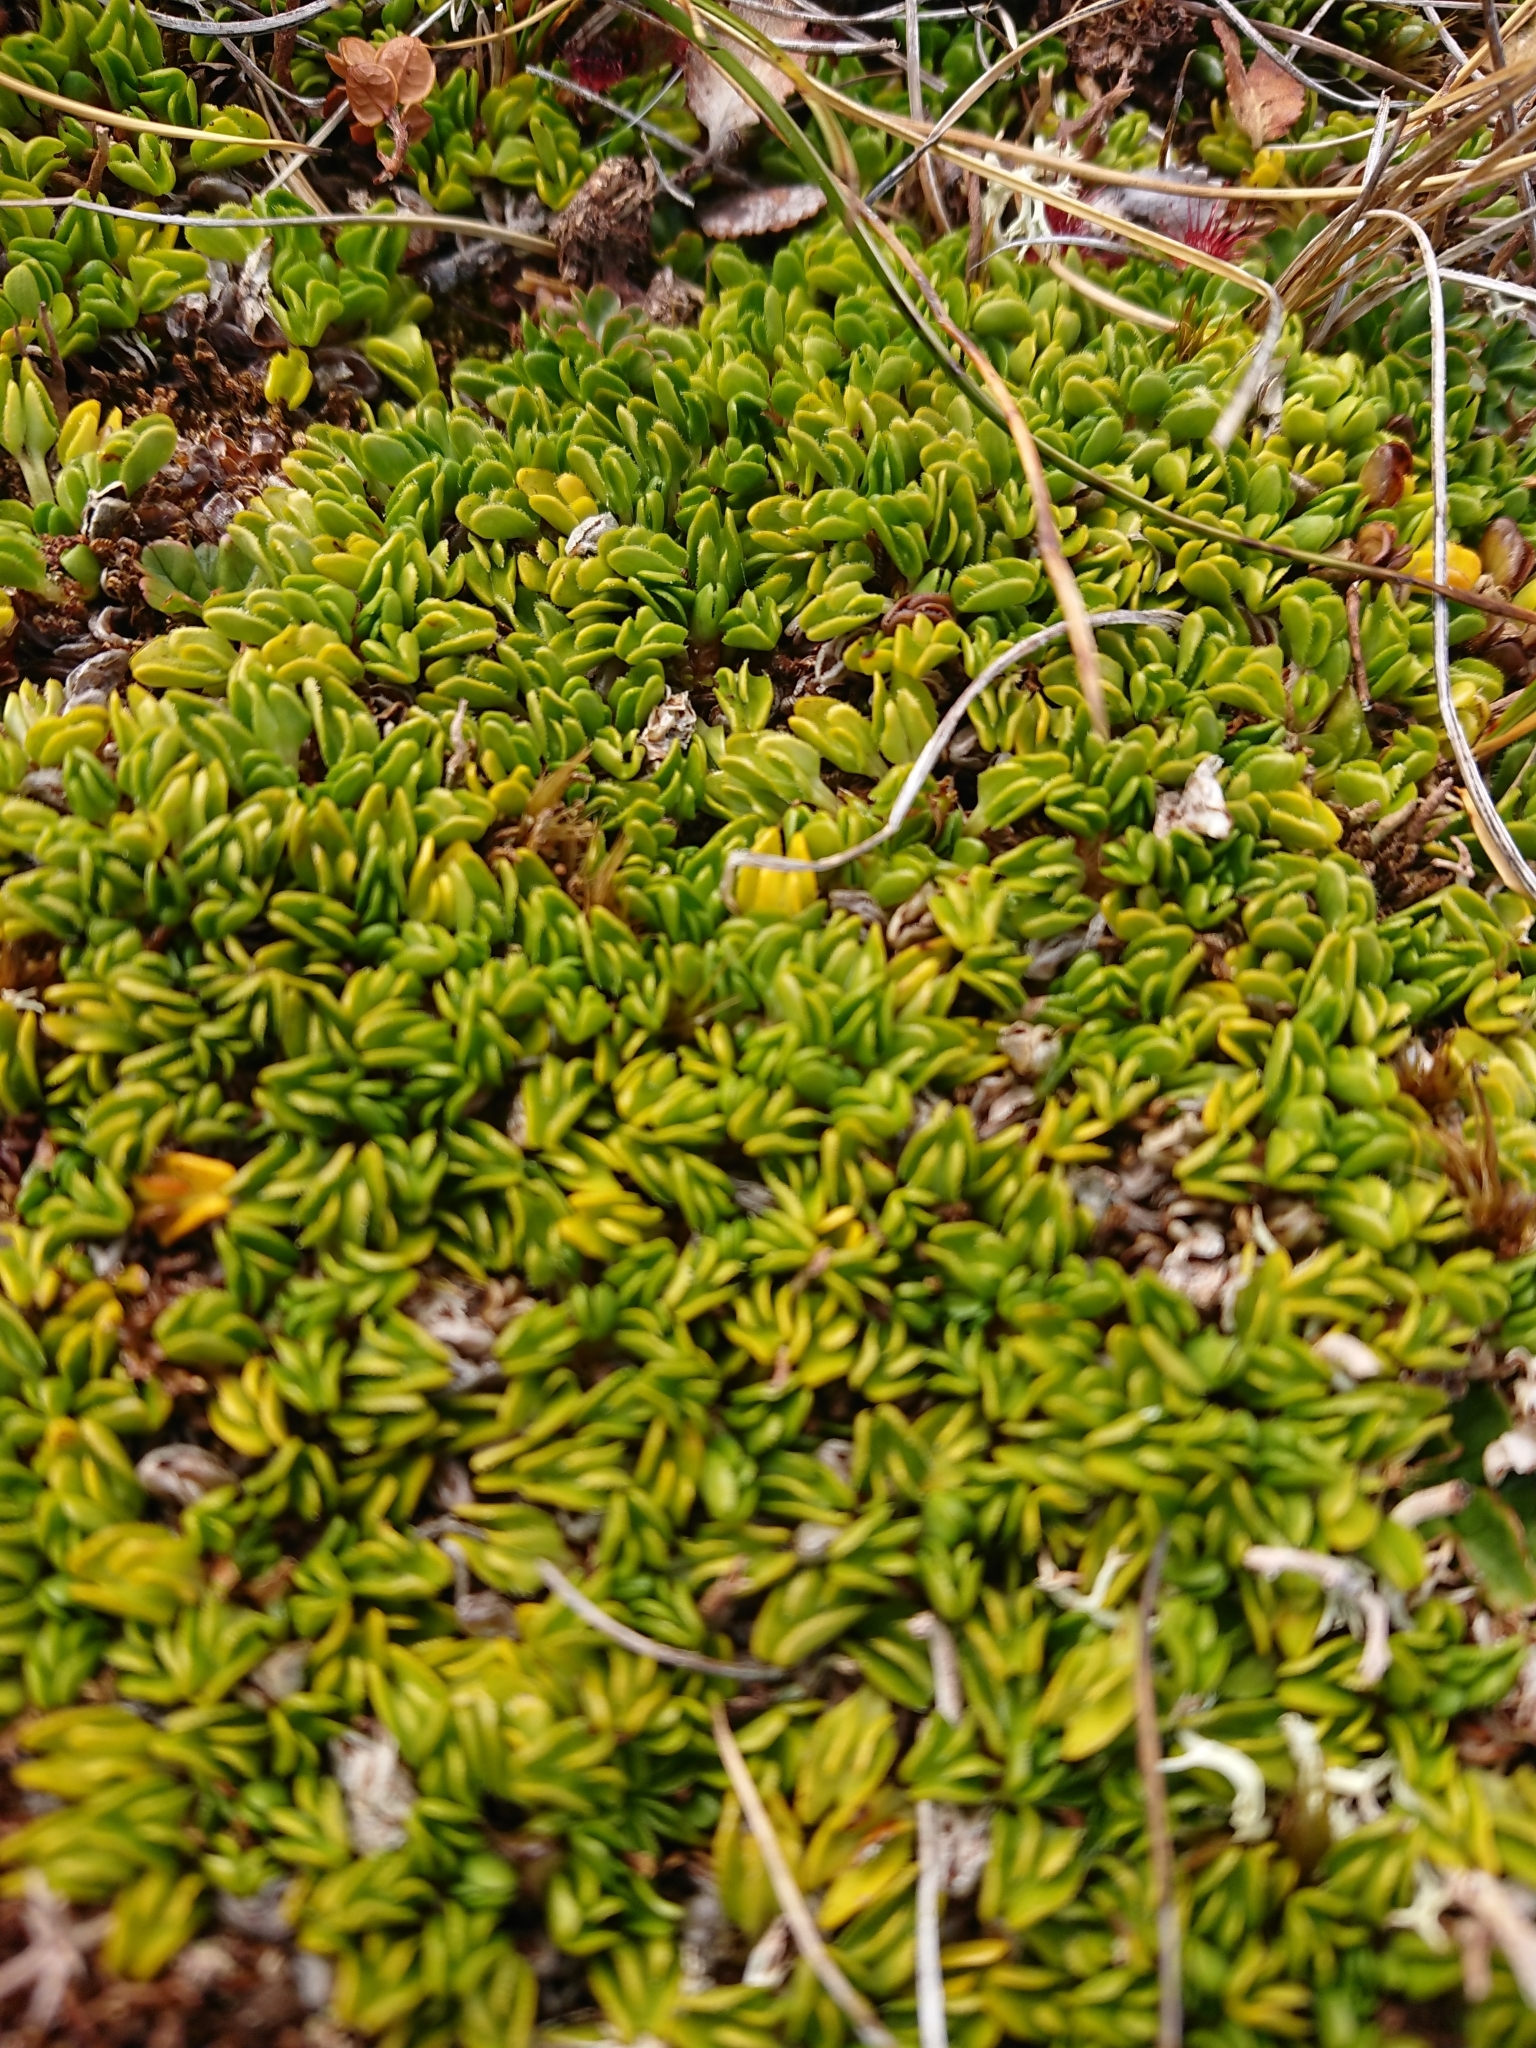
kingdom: Plantae
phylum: Tracheophyta
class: Magnoliopsida
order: Ranunculales
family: Ranunculaceae
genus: Caltha
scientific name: Caltha dionaeifolia
